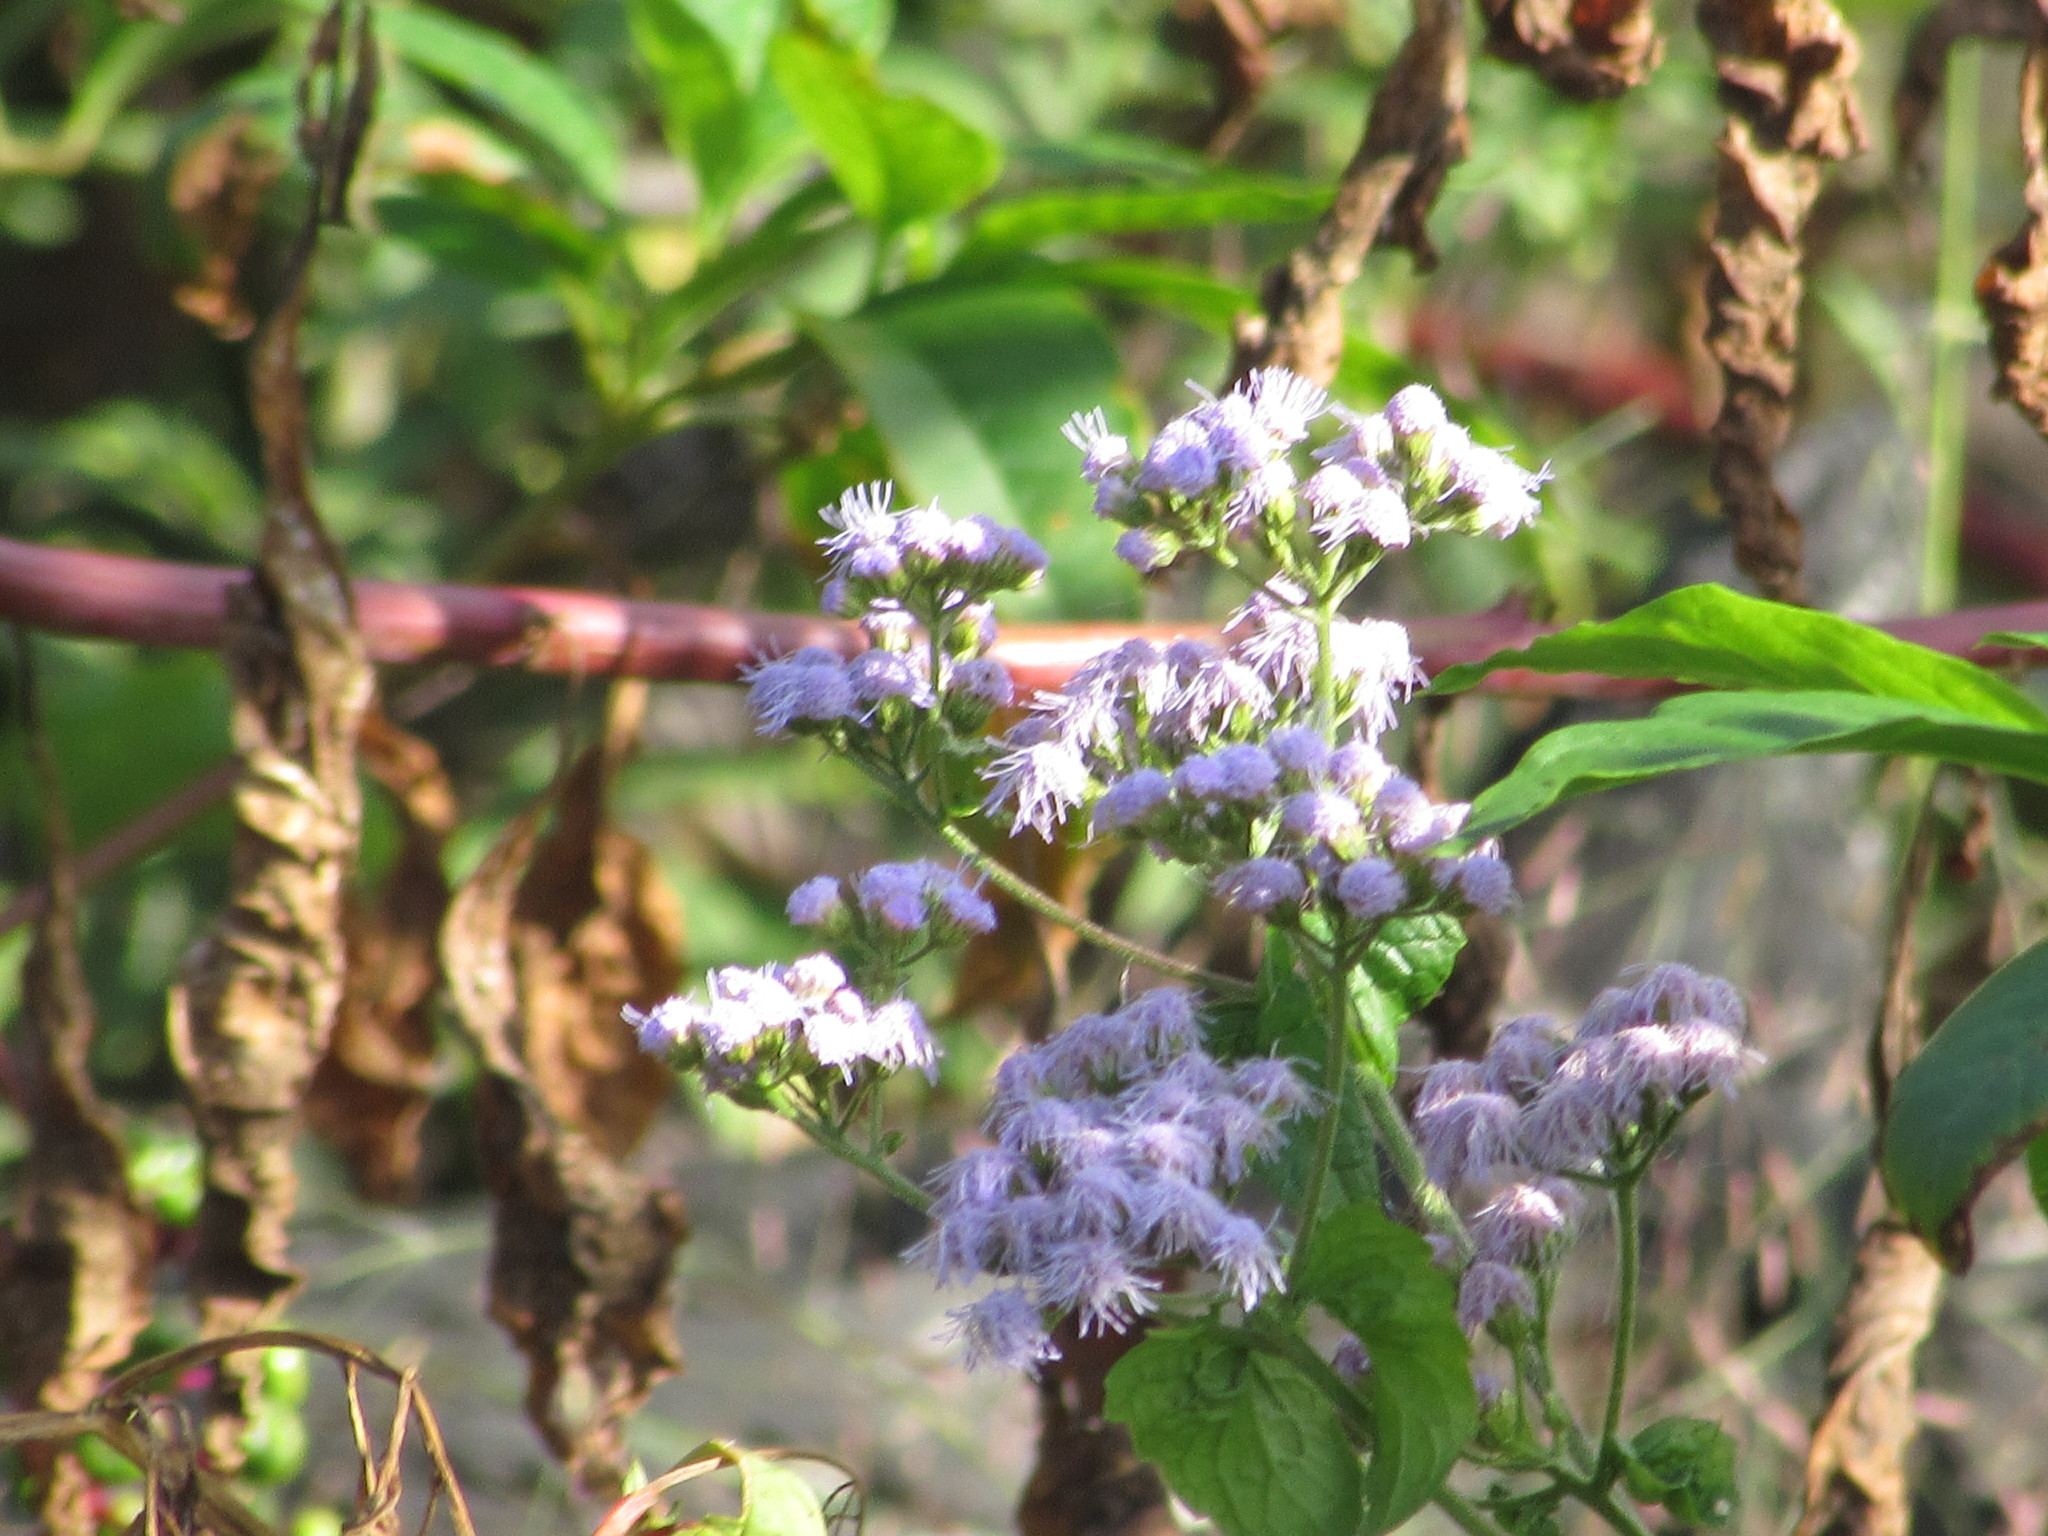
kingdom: Plantae
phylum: Tracheophyta
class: Magnoliopsida
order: Asterales
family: Asteraceae
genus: Conoclinium
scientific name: Conoclinium coelestinum
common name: Blue mistflower
